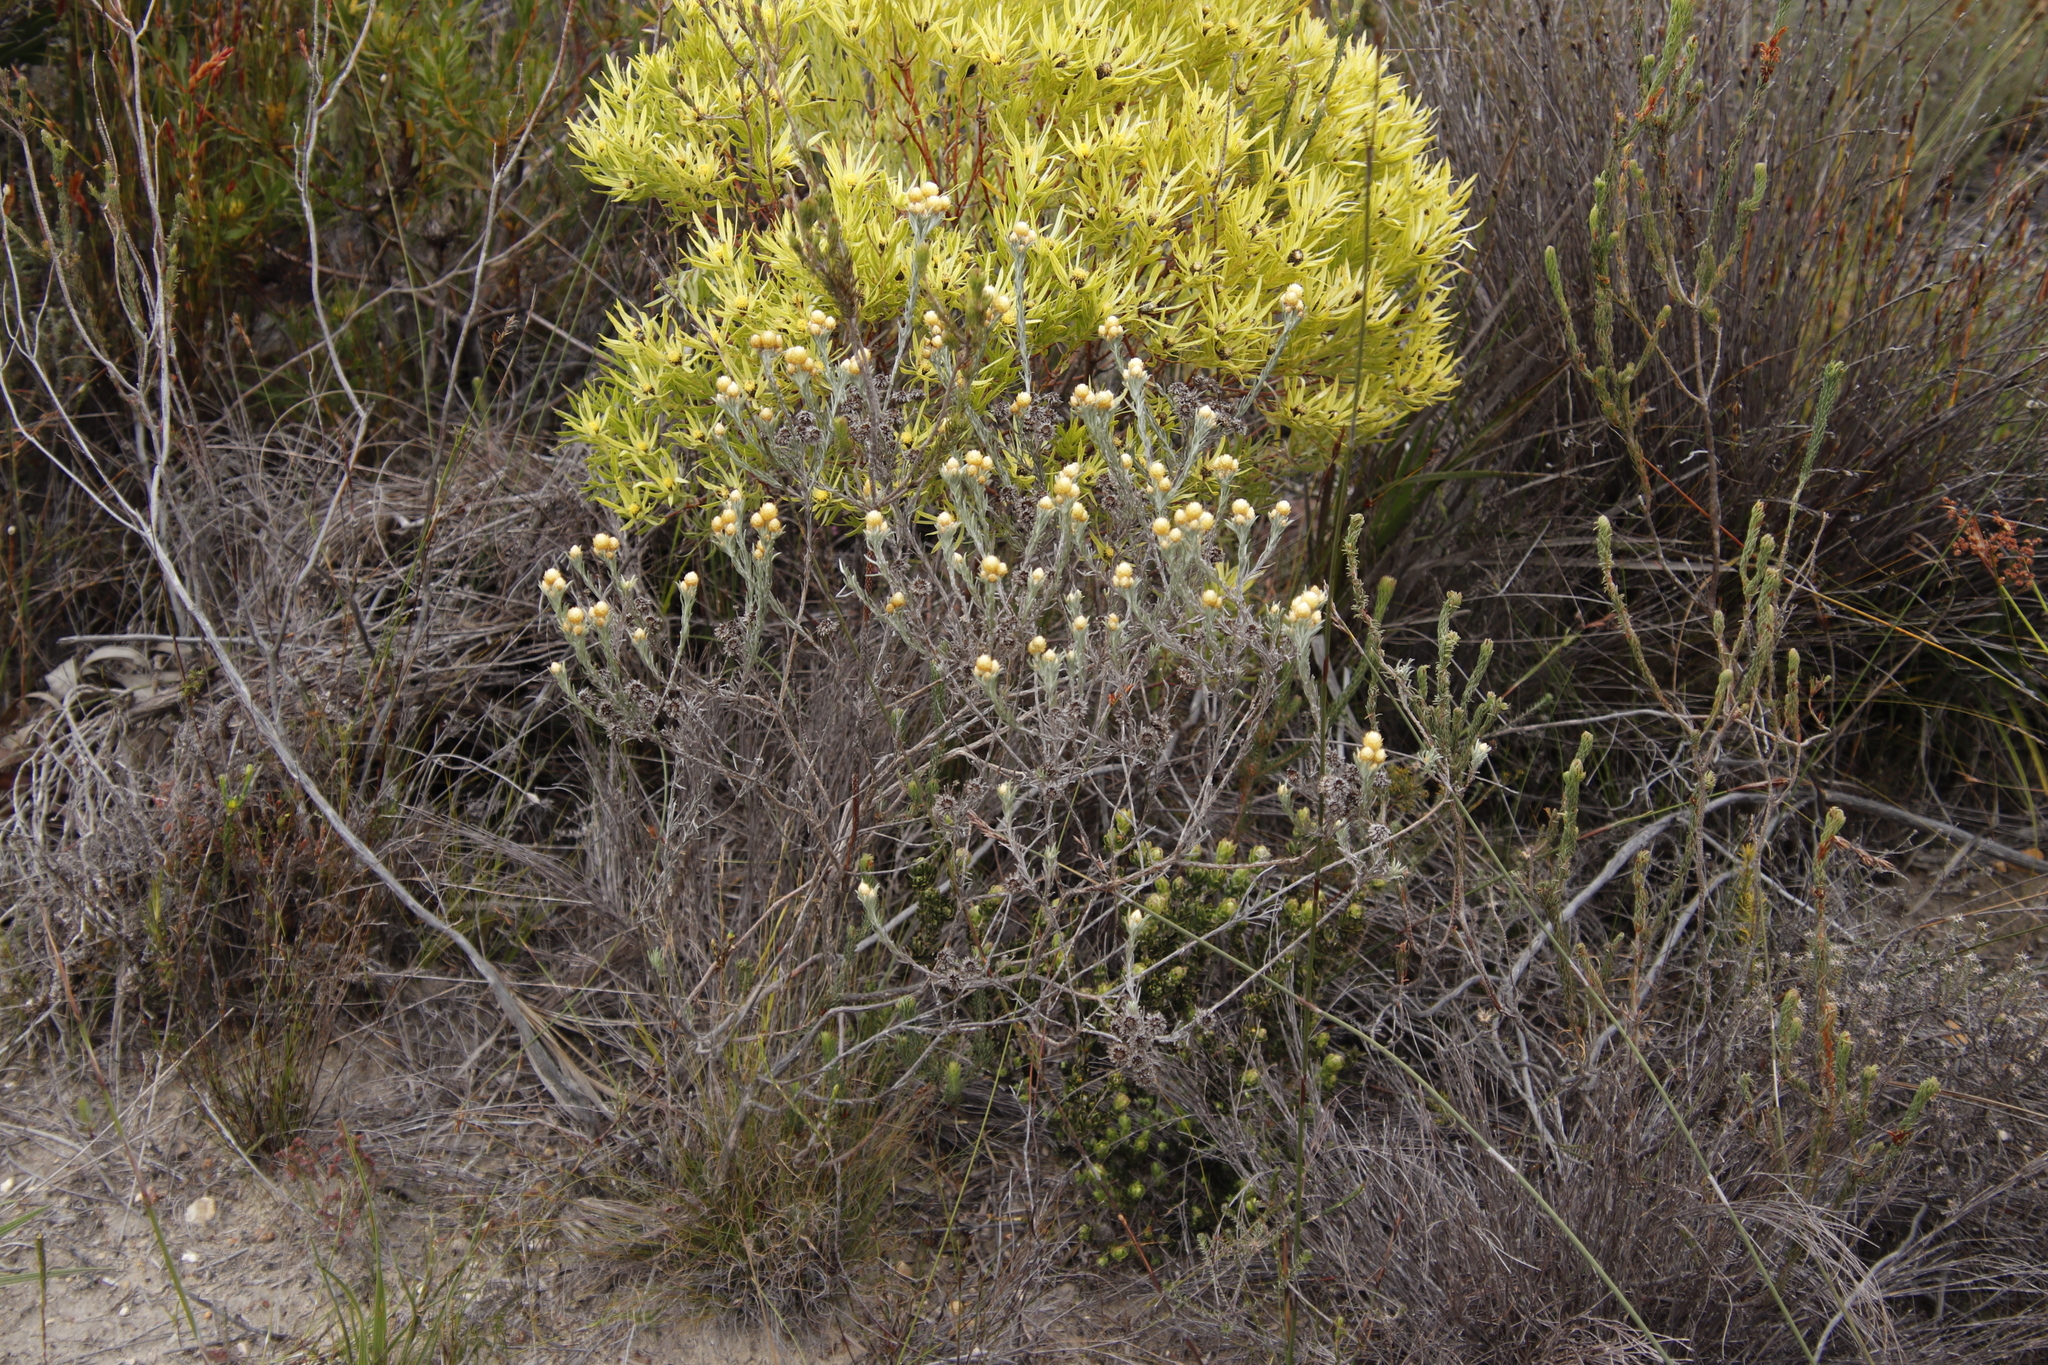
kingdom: Plantae
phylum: Tracheophyta
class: Magnoliopsida
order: Proteales
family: Proteaceae
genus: Leucadendron
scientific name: Leucadendron xanthoconus
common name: Sickle-leaf conebush
